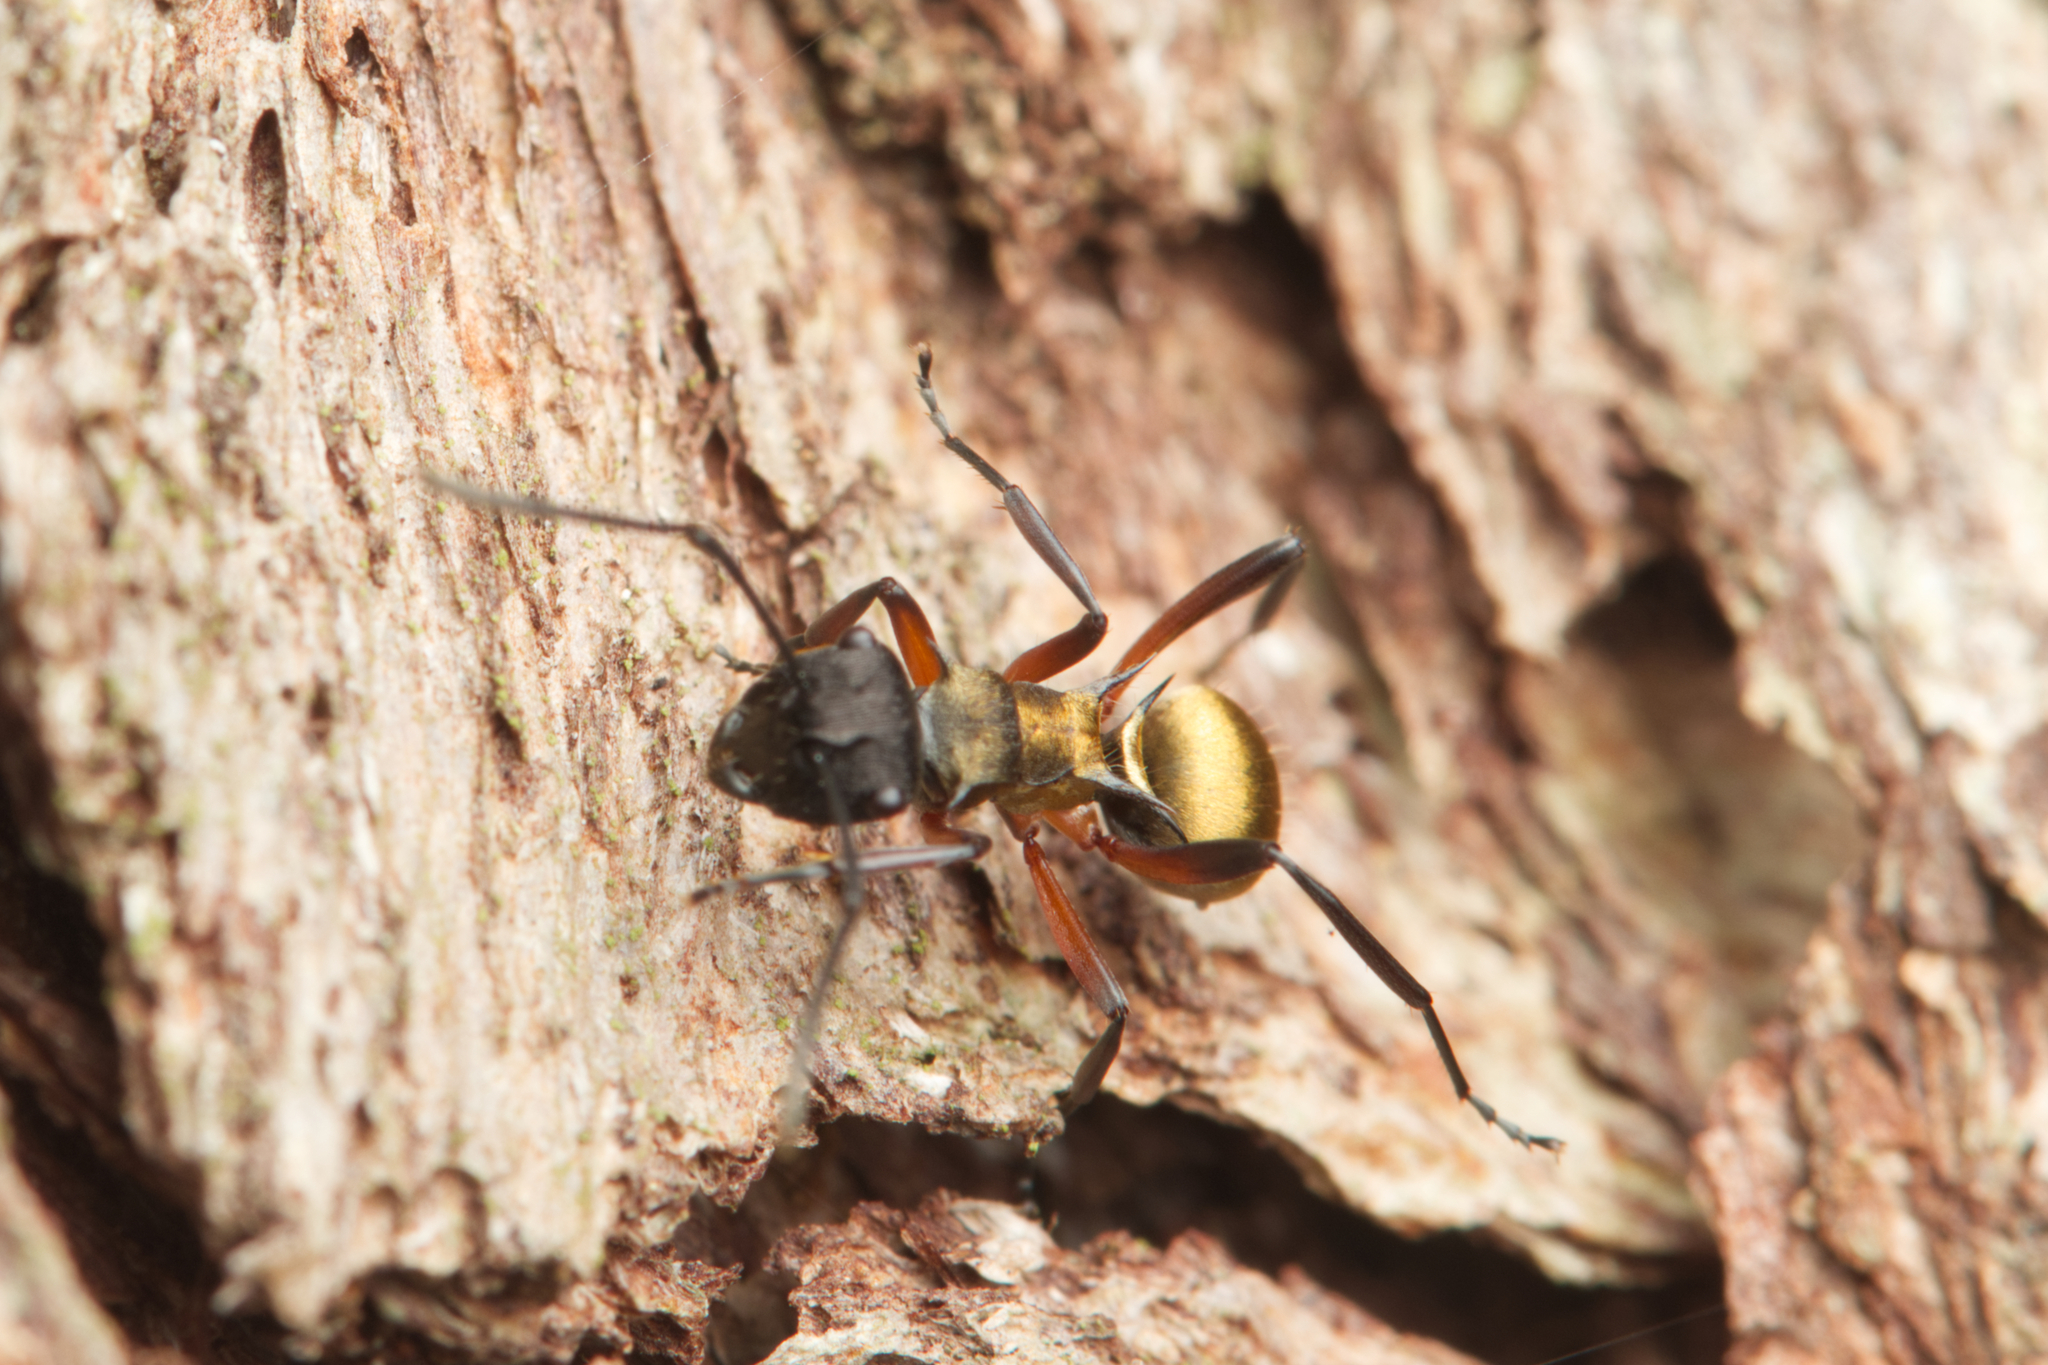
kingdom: Animalia
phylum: Arthropoda
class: Insecta
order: Hymenoptera
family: Formicidae
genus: Polyrhachis
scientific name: Polyrhachis rufifemur
